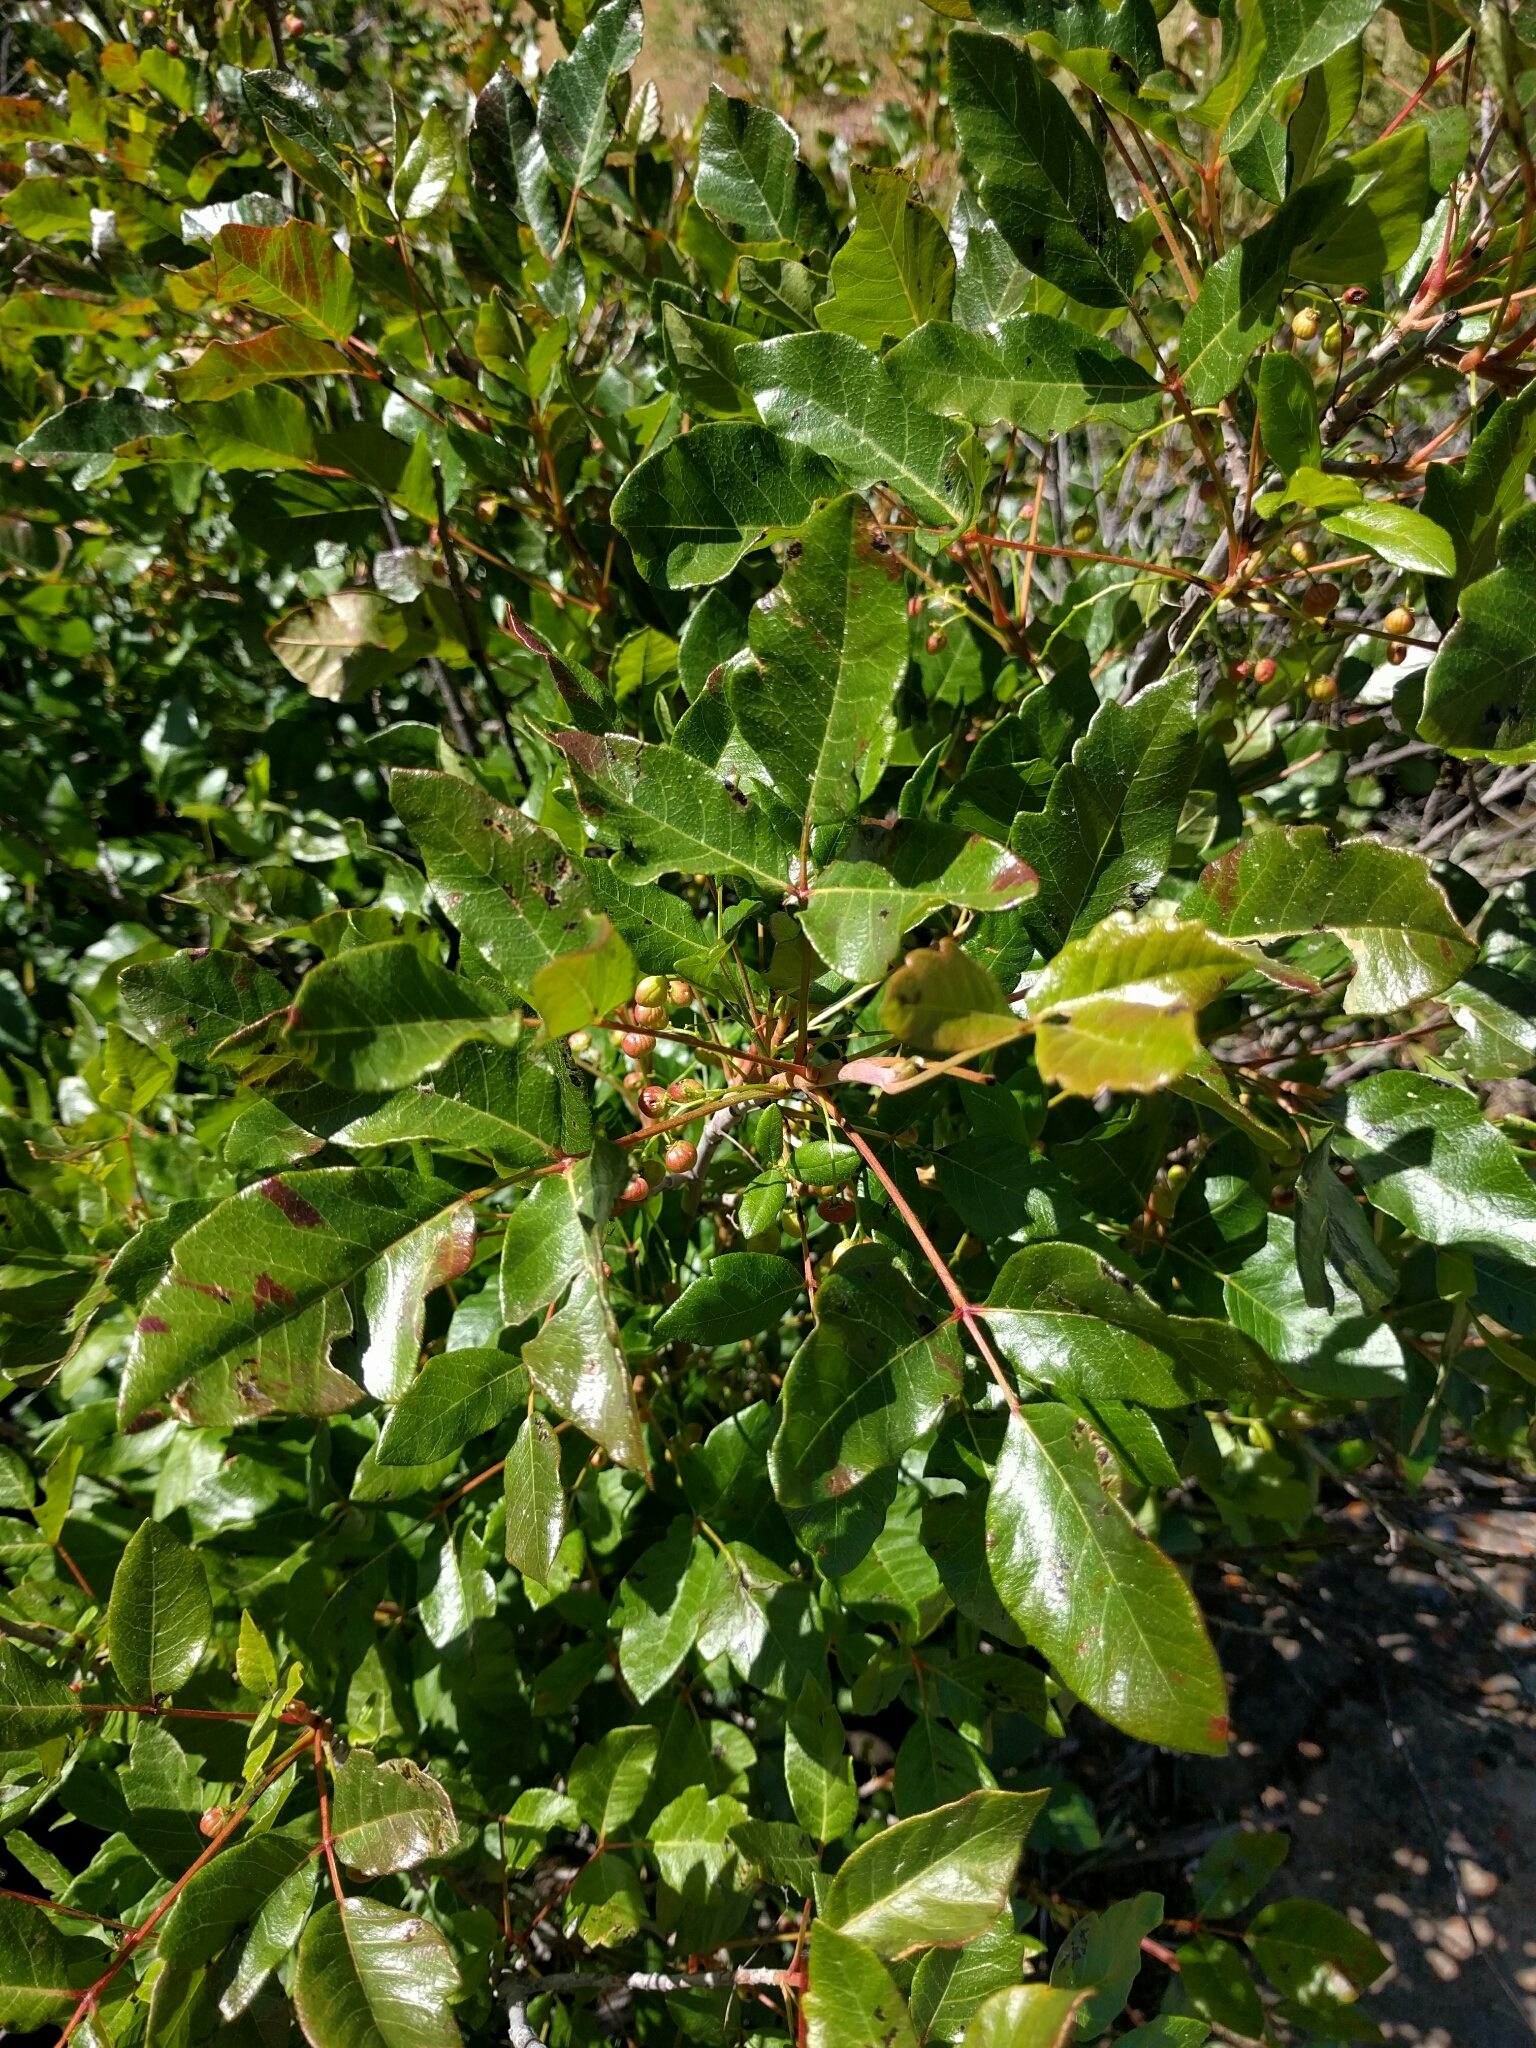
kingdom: Plantae
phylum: Tracheophyta
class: Magnoliopsida
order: Sapindales
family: Anacardiaceae
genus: Toxicodendron
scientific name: Toxicodendron diversilobum
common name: Pacific poison-oak
